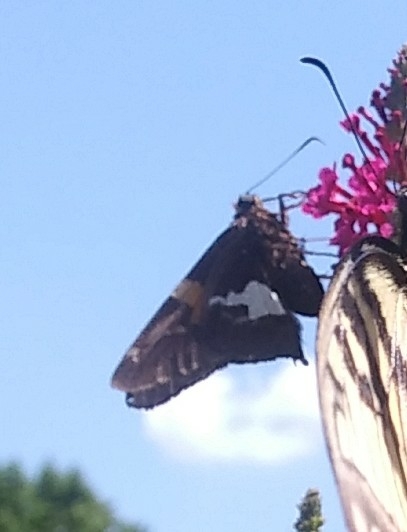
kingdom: Animalia
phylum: Arthropoda
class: Insecta
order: Lepidoptera
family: Hesperiidae
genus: Epargyreus
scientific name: Epargyreus clarus
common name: Silver-spotted skipper
